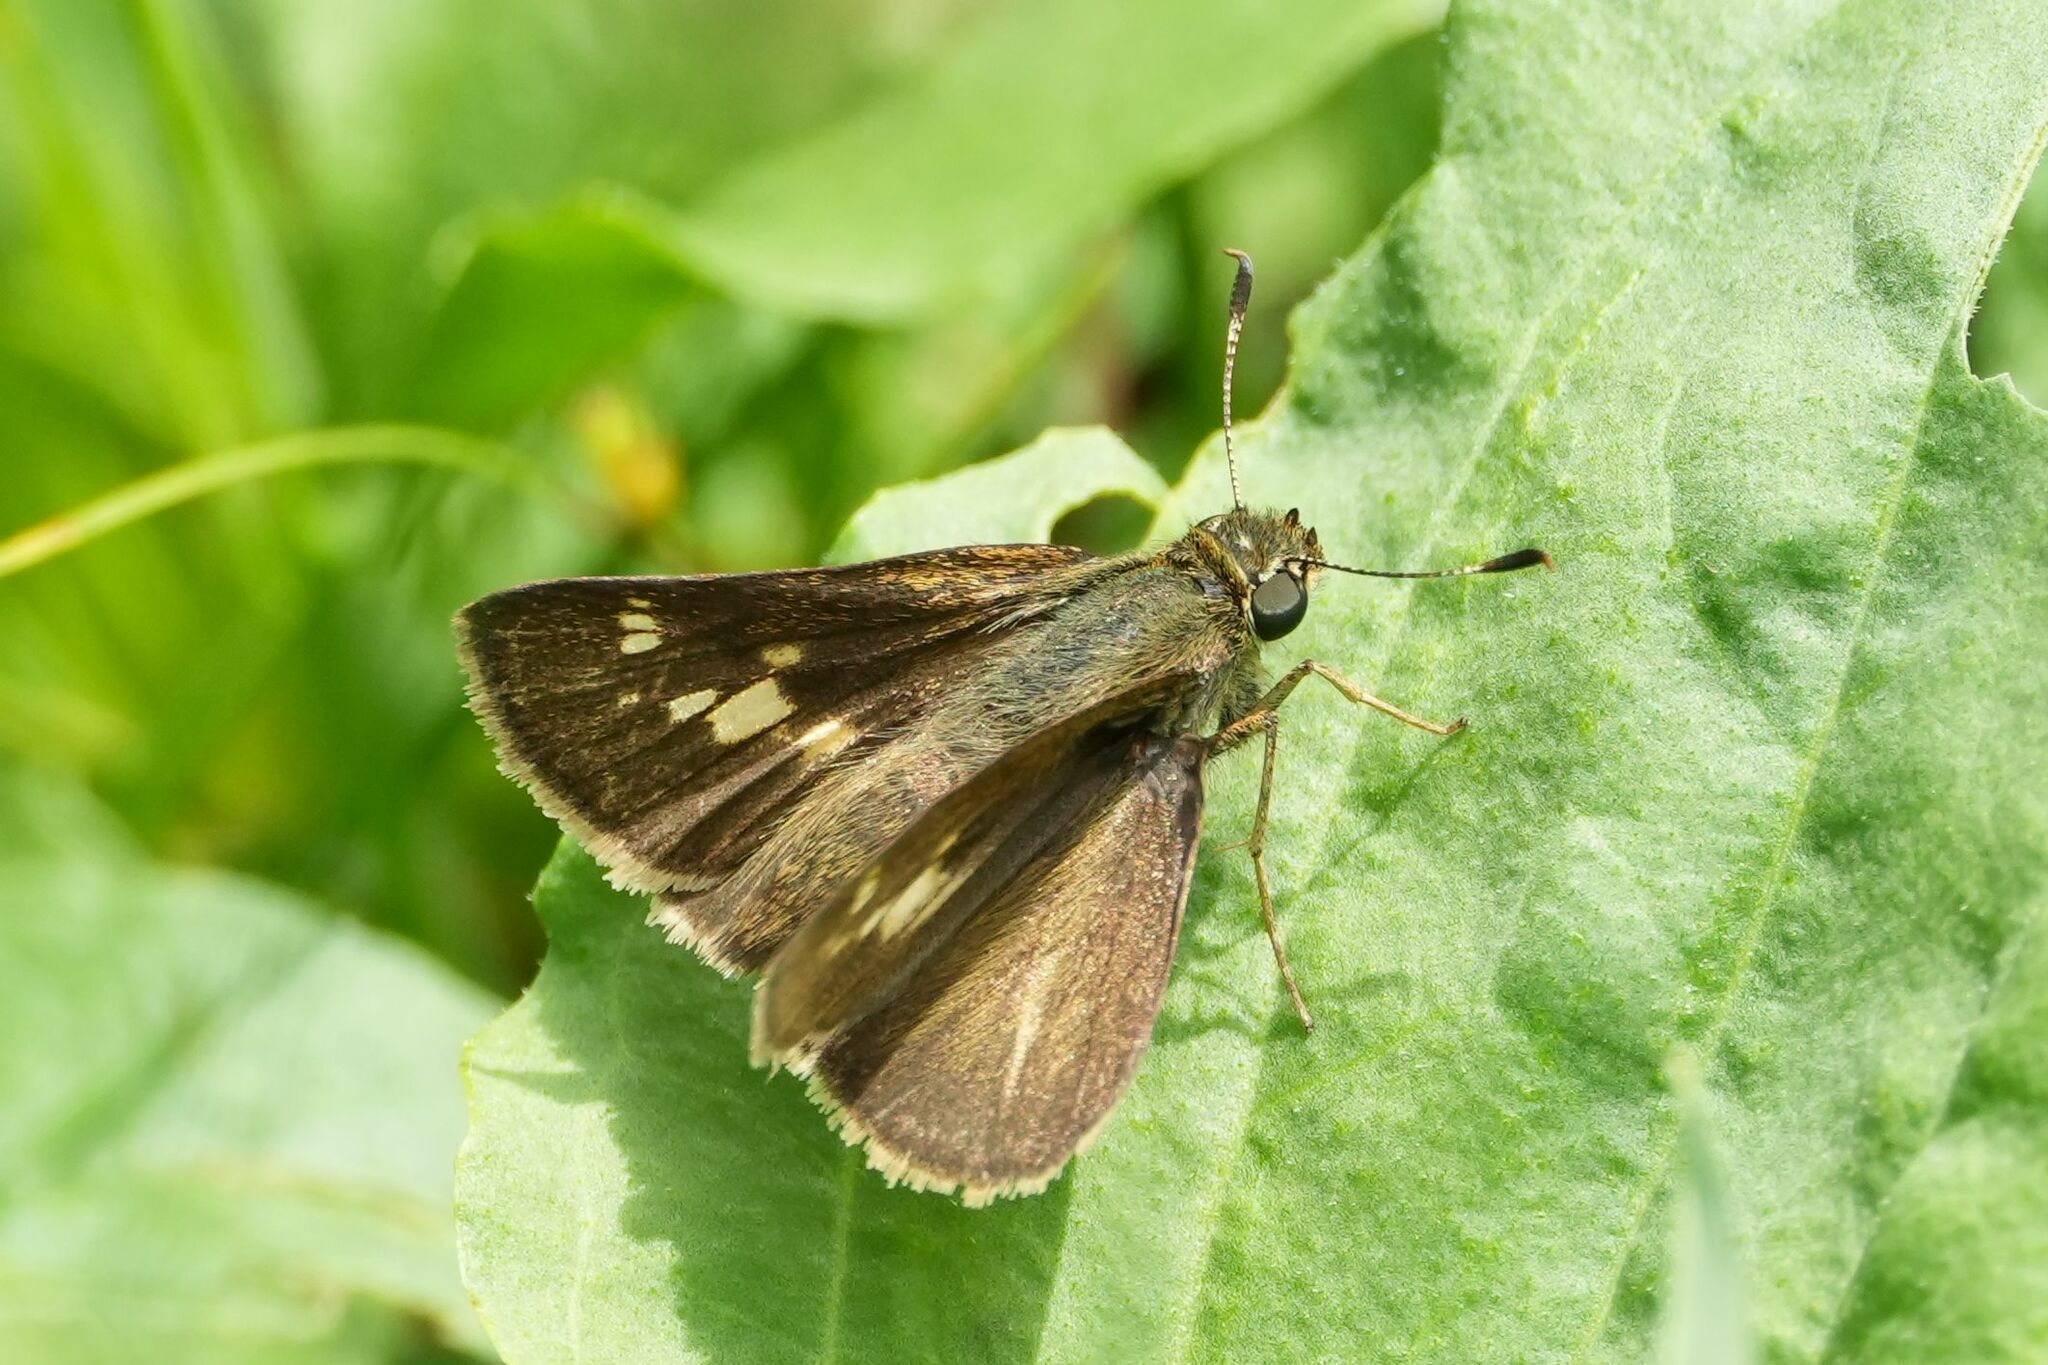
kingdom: Animalia
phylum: Arthropoda
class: Insecta
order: Lepidoptera
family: Hesperiidae
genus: Vernia
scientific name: Vernia verna
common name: Little glassywing
